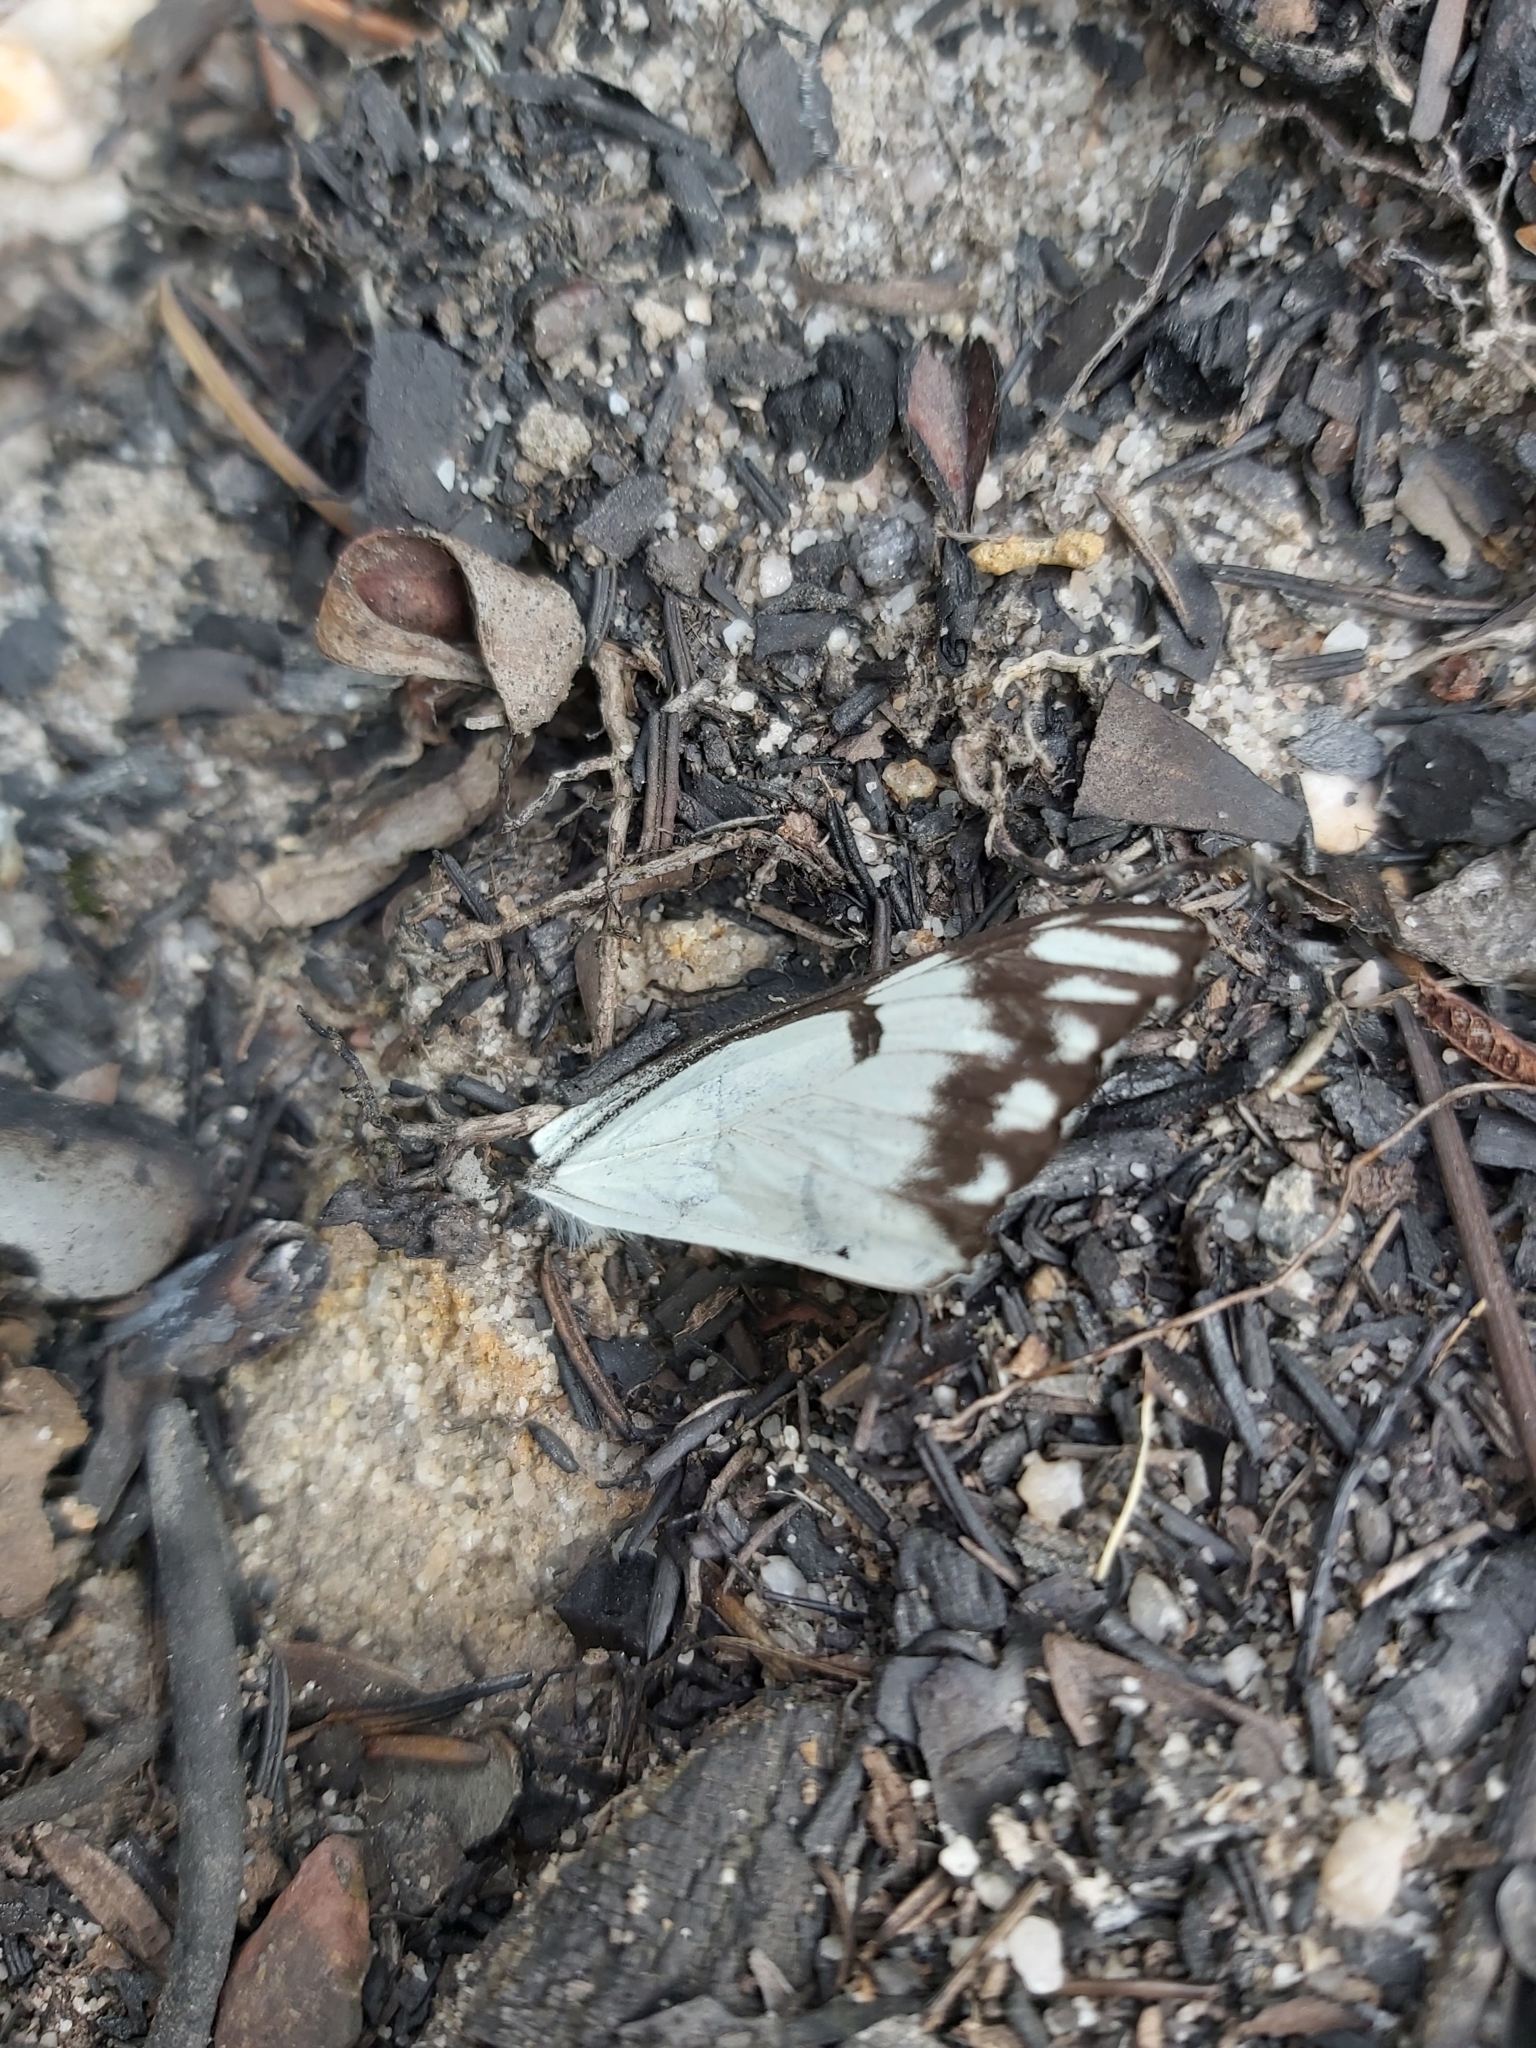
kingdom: Animalia
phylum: Arthropoda
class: Insecta
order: Lepidoptera
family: Pieridae
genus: Belenois
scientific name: Belenois java
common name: Caper white
